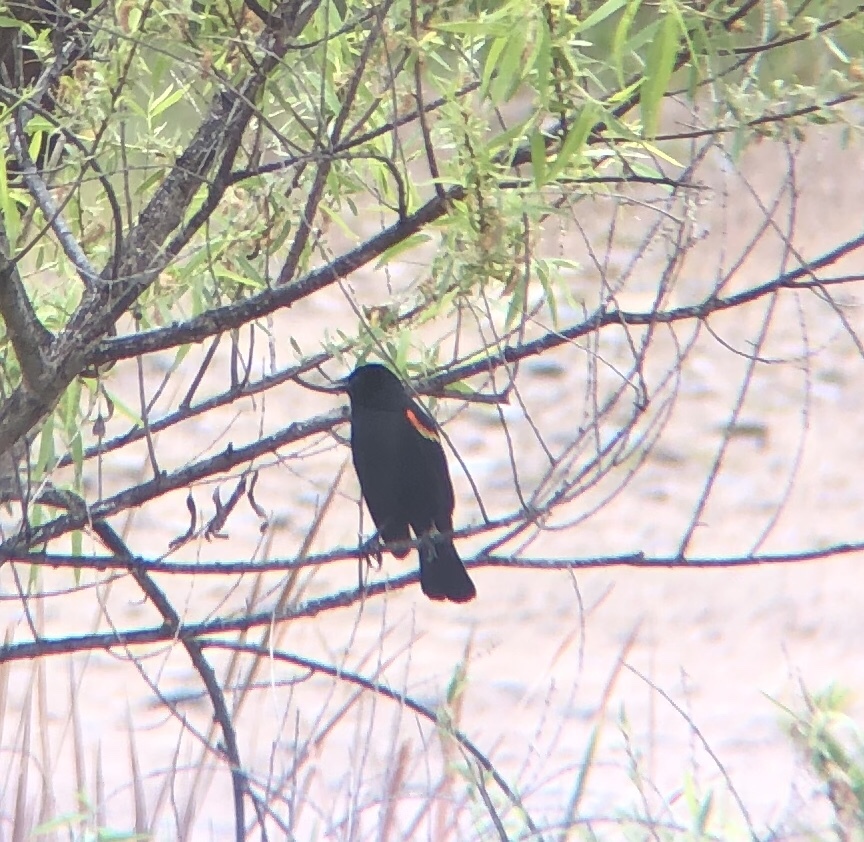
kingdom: Animalia
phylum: Chordata
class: Aves
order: Passeriformes
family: Icteridae
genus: Agelaius
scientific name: Agelaius phoeniceus
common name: Red-winged blackbird
